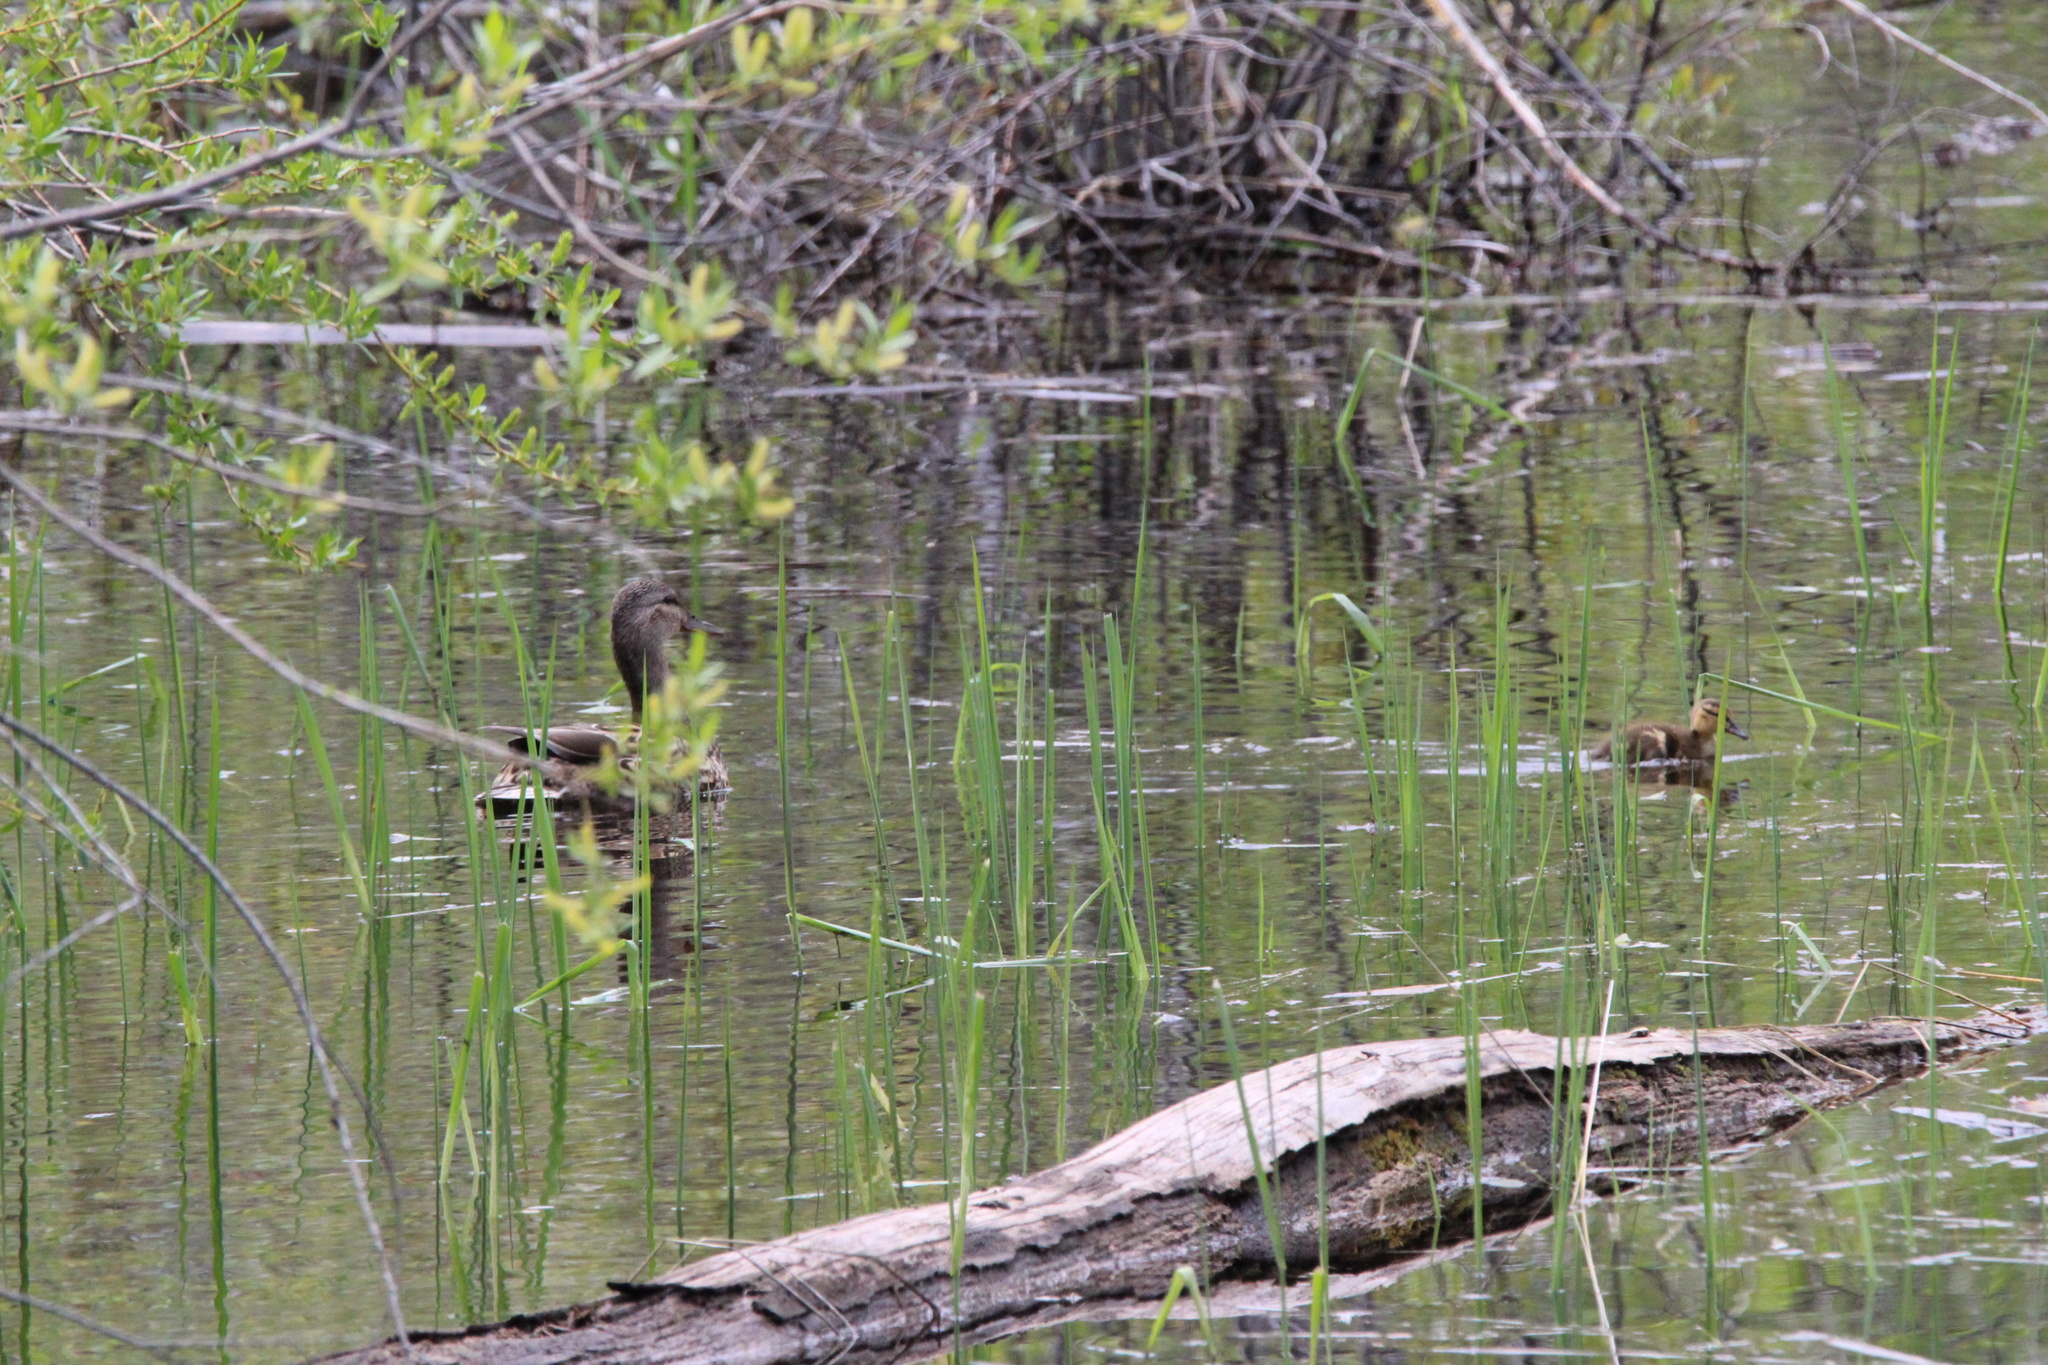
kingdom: Animalia
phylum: Chordata
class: Aves
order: Anseriformes
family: Anatidae
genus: Anas
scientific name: Anas platyrhynchos
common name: Mallard
